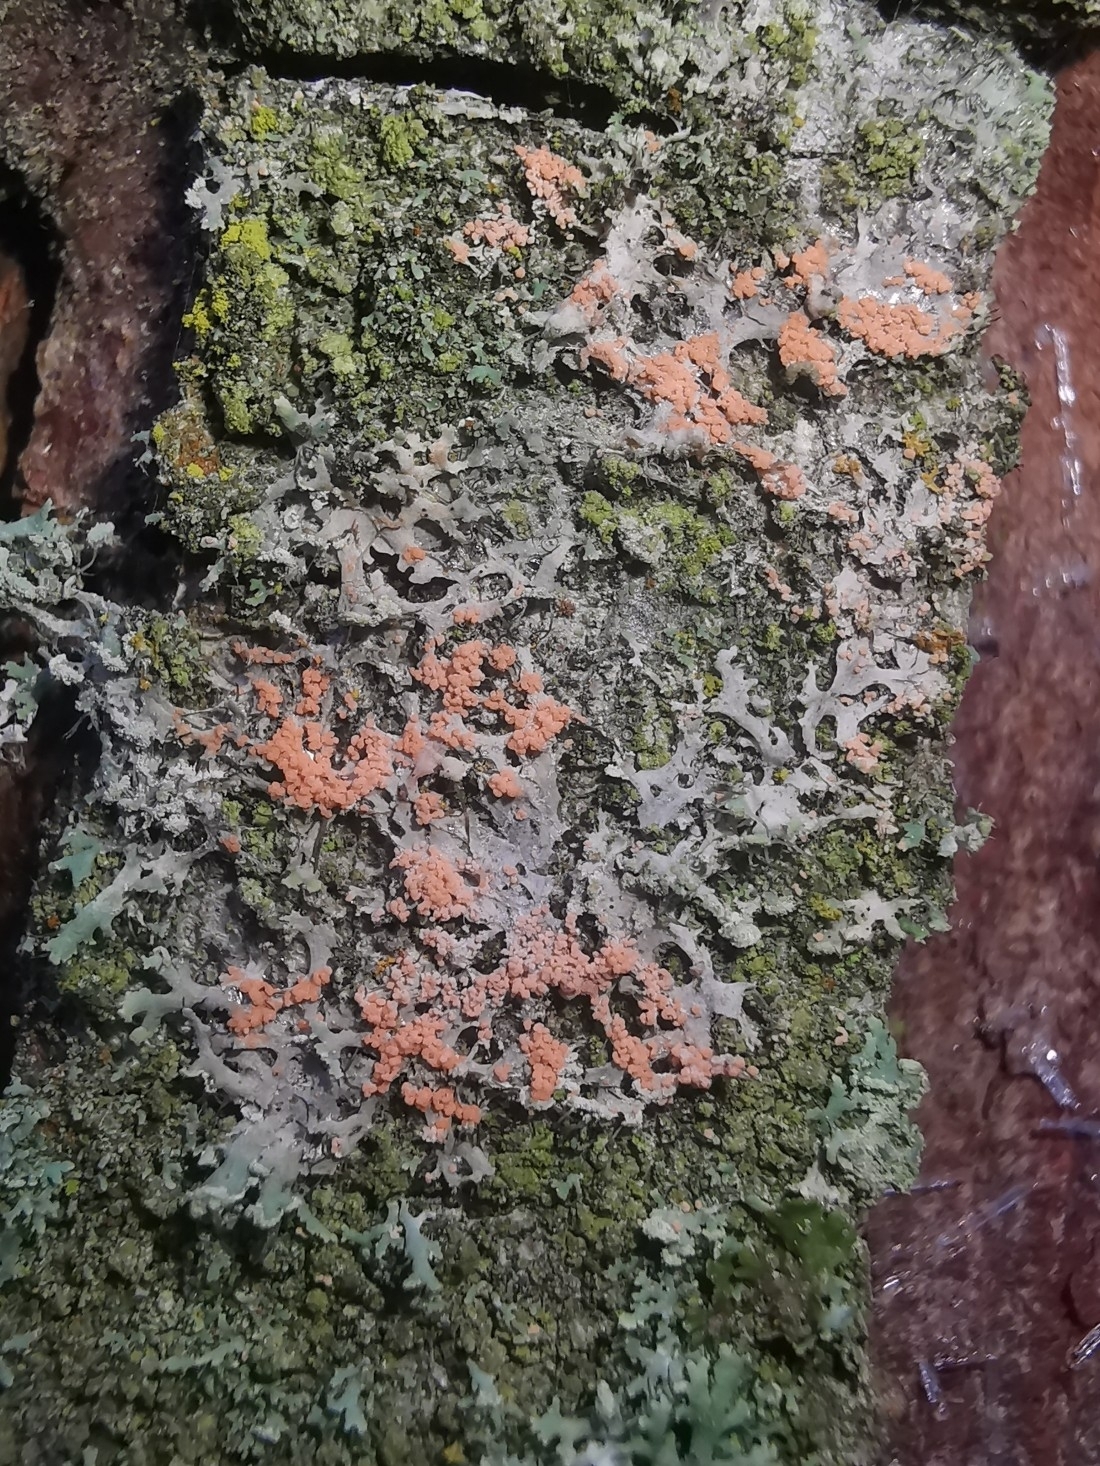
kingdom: Fungi
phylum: Basidiomycota
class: Agaricomycetes
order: Corticiales
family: Corticiaceae
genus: Erythricium
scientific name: Erythricium aurantiacum
